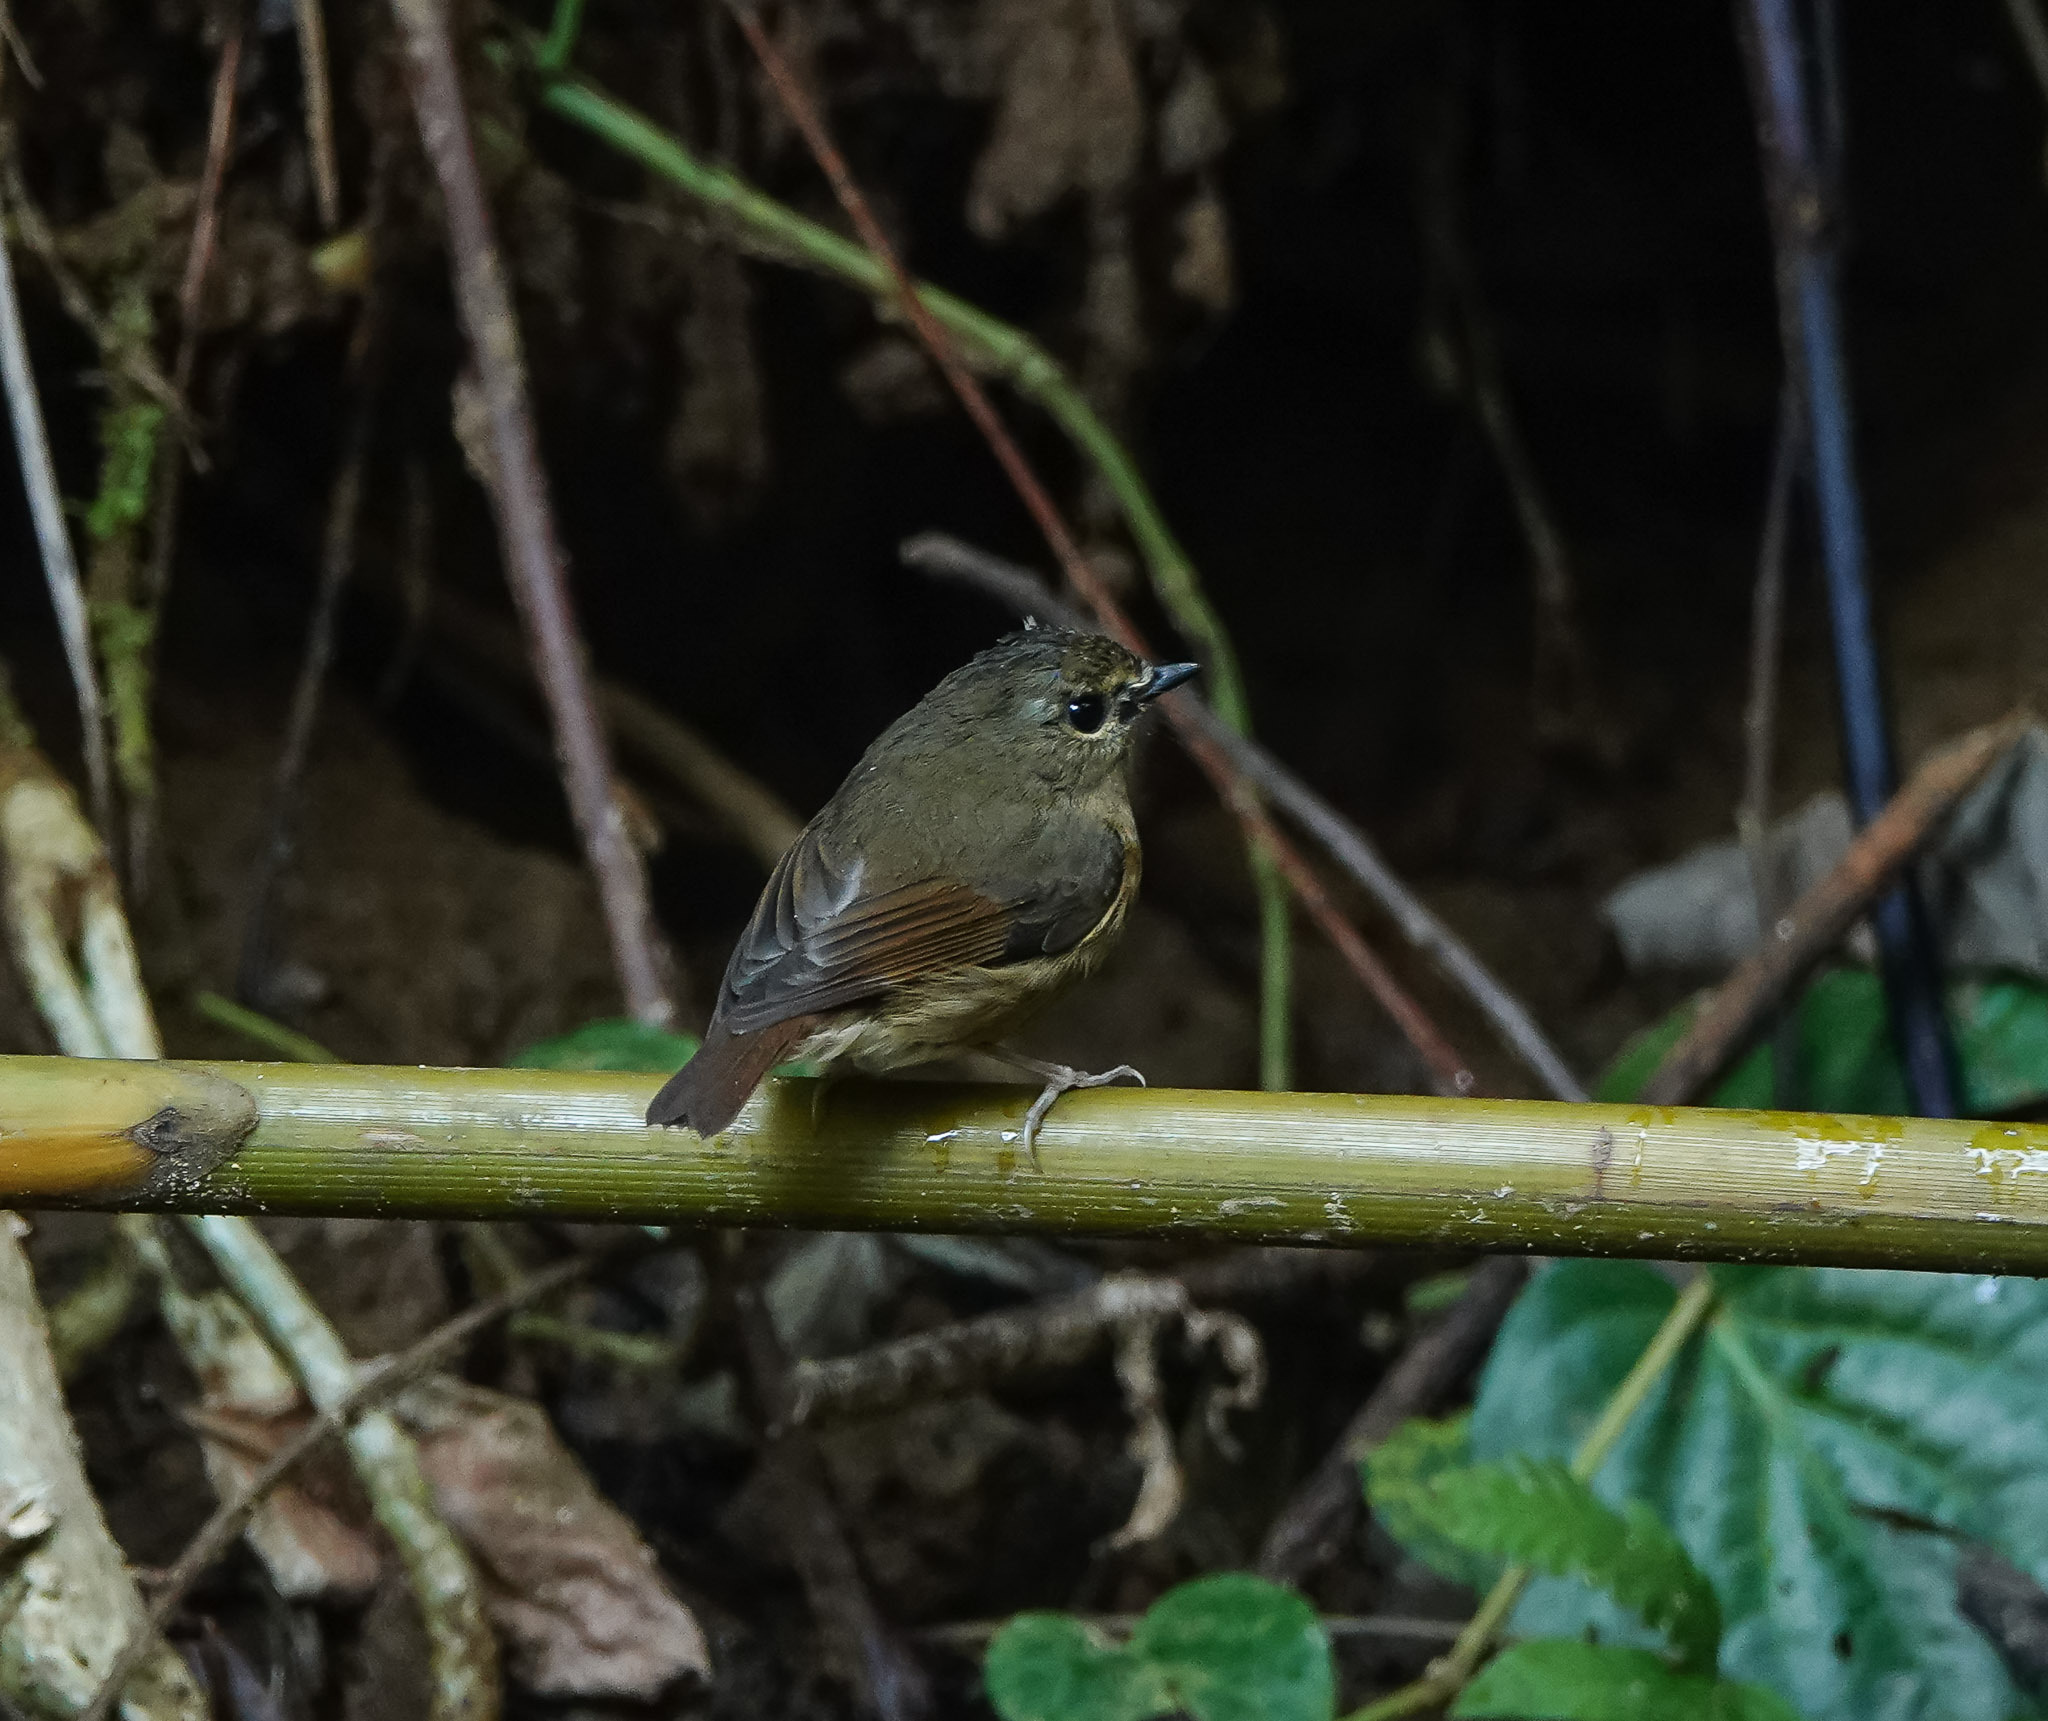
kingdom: Animalia
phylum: Chordata
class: Aves
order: Passeriformes
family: Muscicapidae
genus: Ficedula
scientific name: Ficedula hyperythra
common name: Snowy-browed flycatcher
